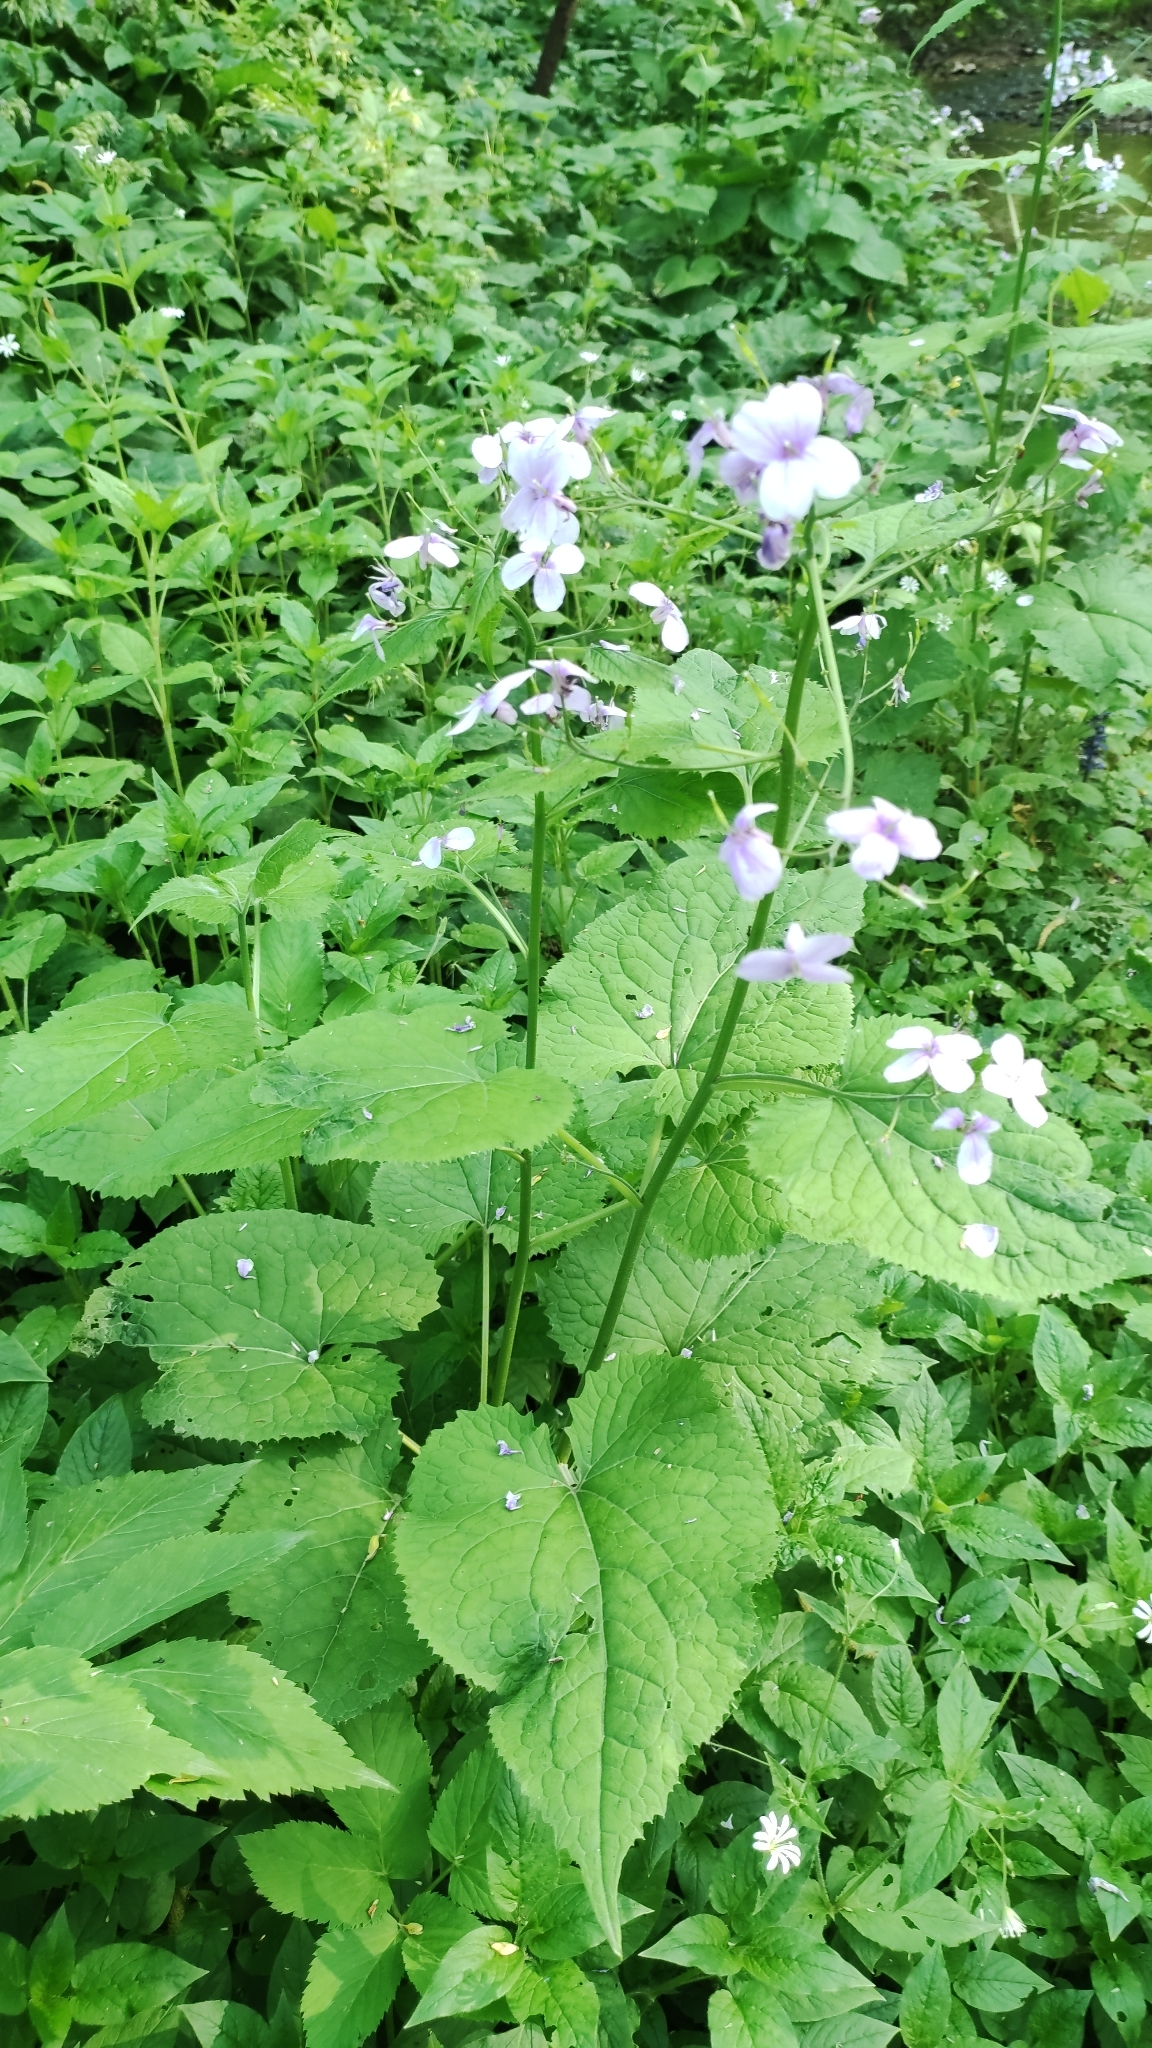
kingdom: Plantae
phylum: Tracheophyta
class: Magnoliopsida
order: Brassicales
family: Brassicaceae
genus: Lunaria
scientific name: Lunaria rediviva
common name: Perennial honesty
